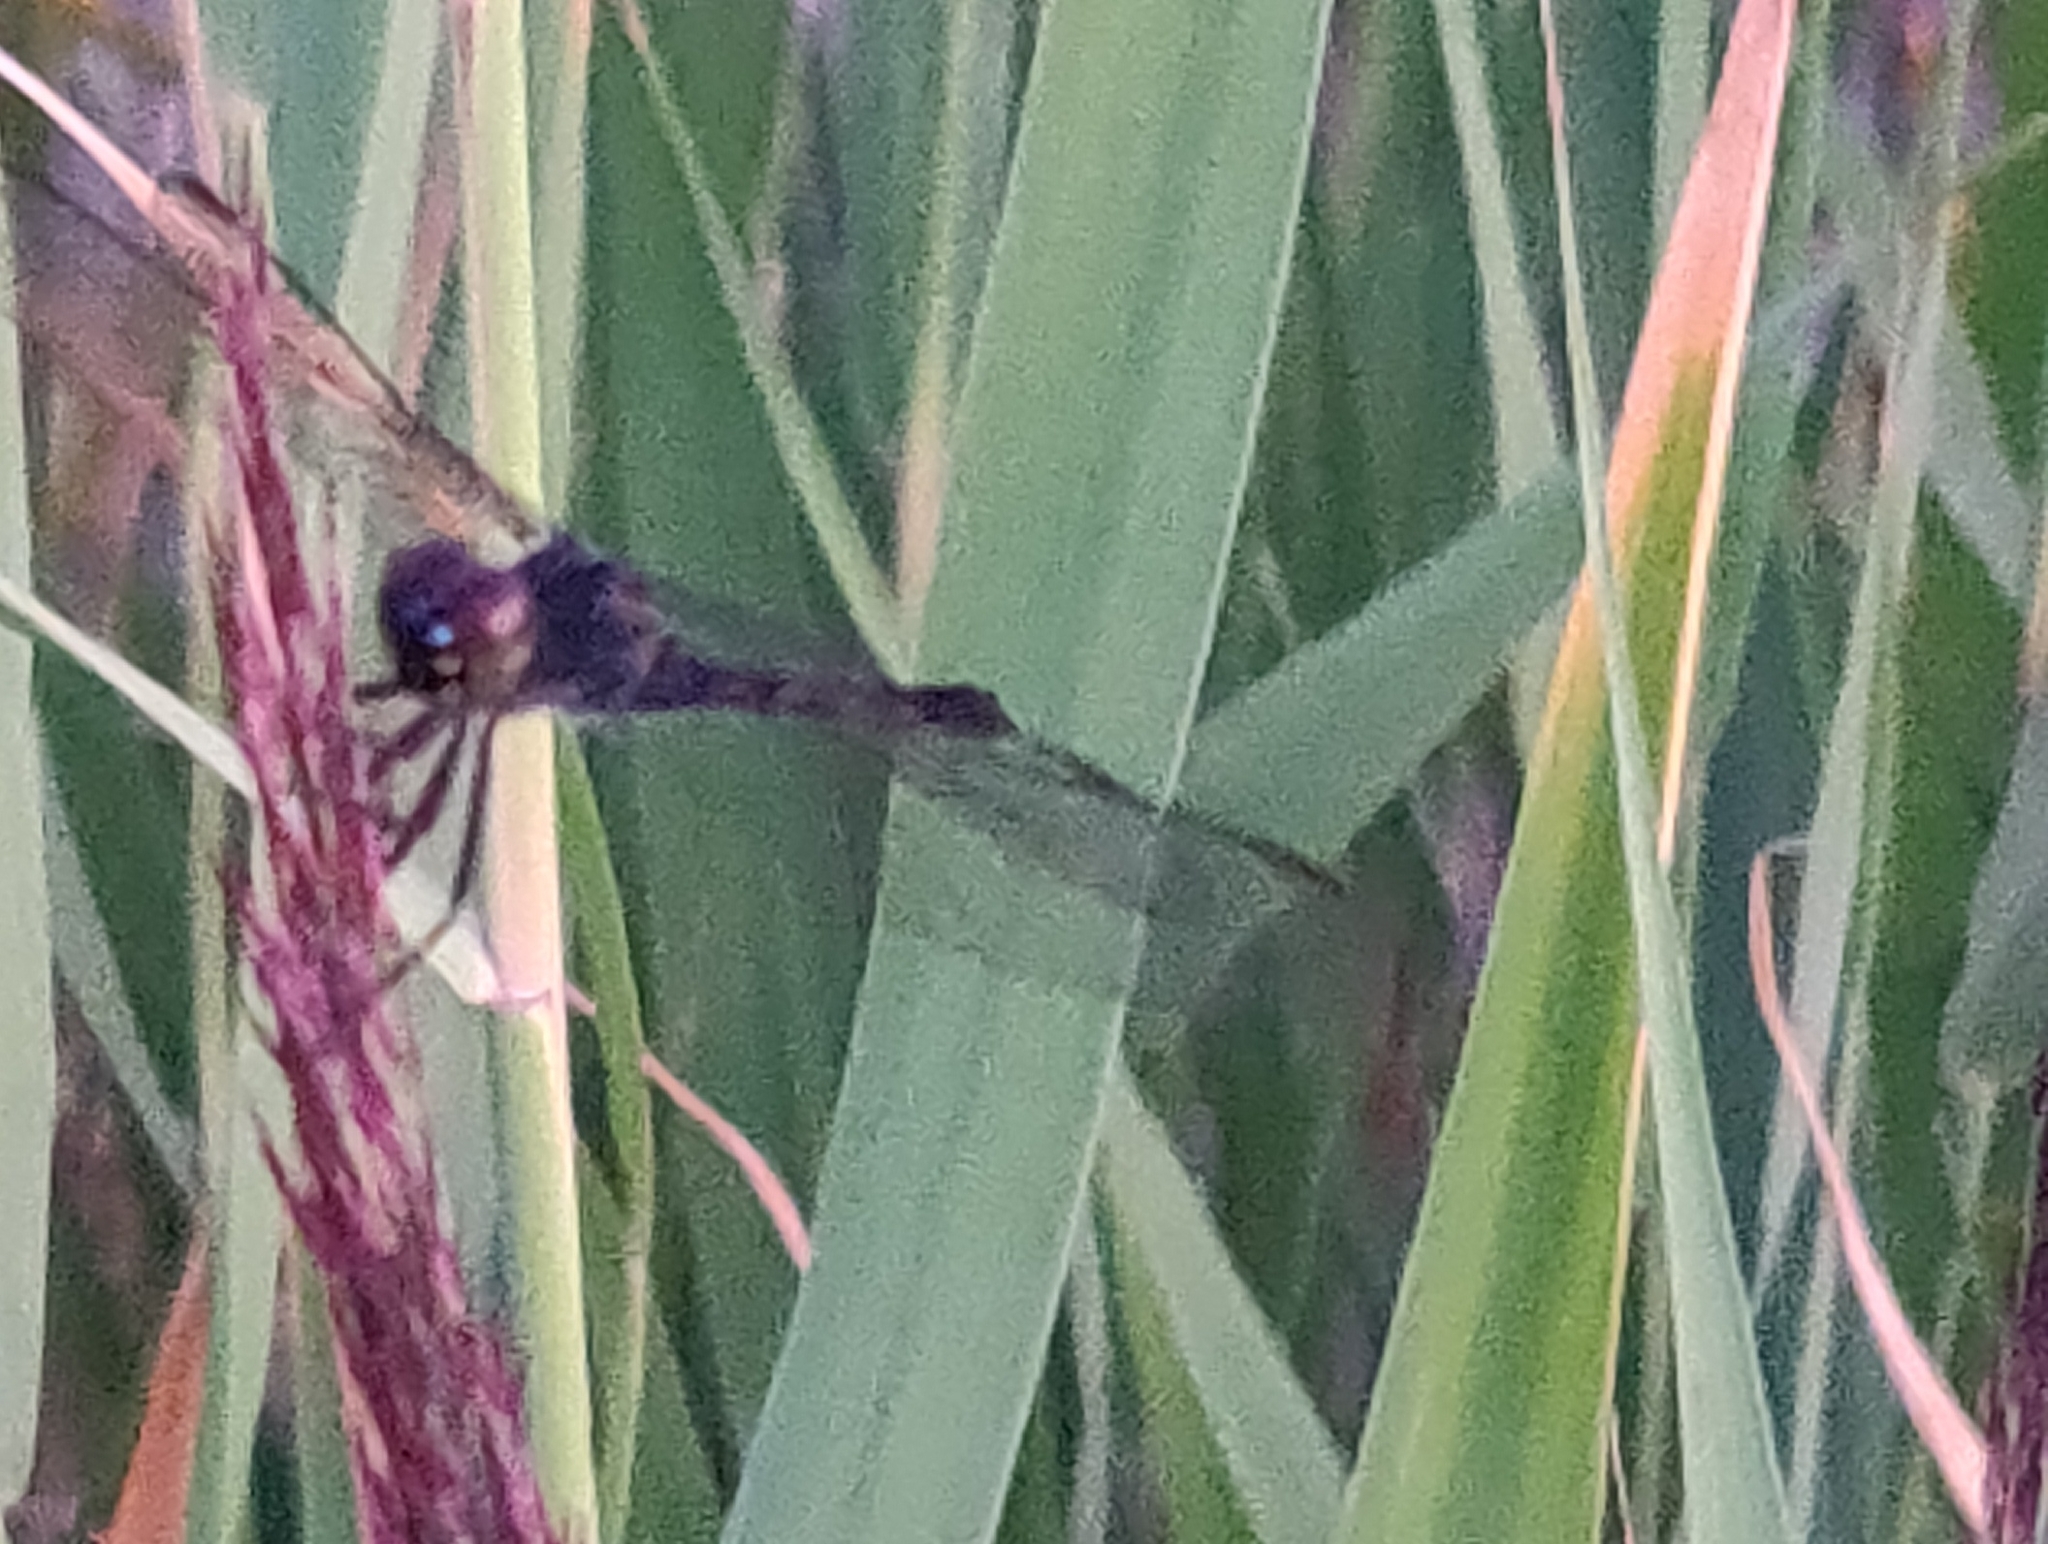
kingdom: Animalia
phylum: Arthropoda
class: Insecta
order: Odonata
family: Libellulidae
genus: Erythrodiplax
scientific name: Erythrodiplax berenice
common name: Seaside dragonlet
